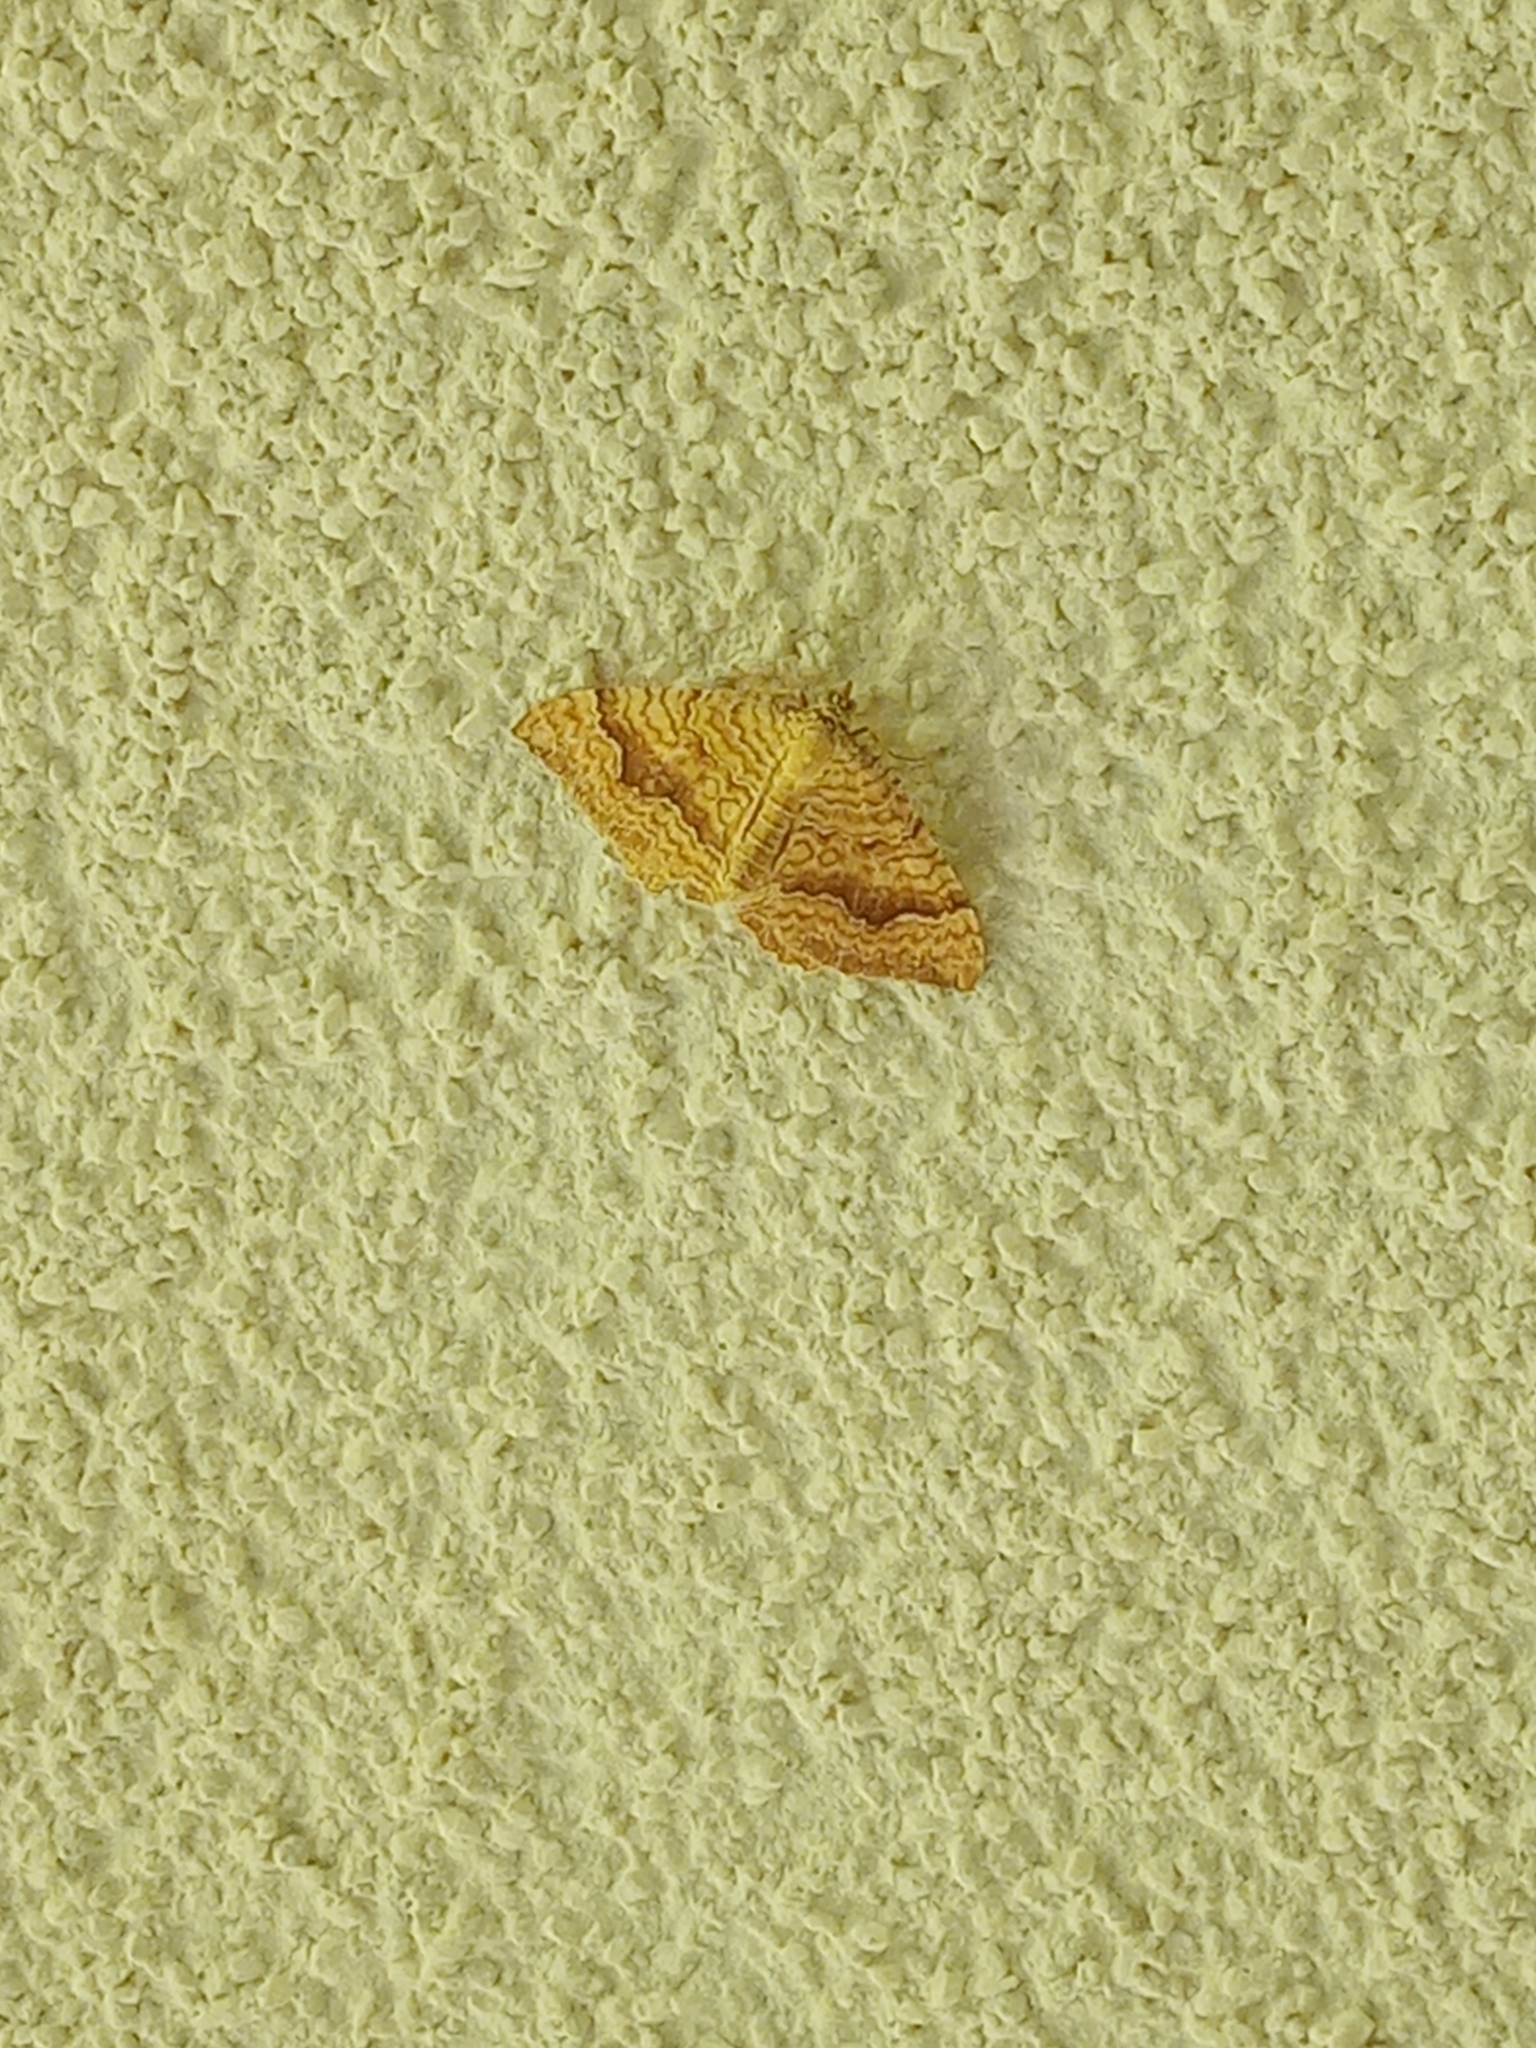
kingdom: Animalia
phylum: Arthropoda
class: Insecta
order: Lepidoptera
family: Geometridae
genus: Camptogramma
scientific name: Camptogramma bilineata
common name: Yellow shell
